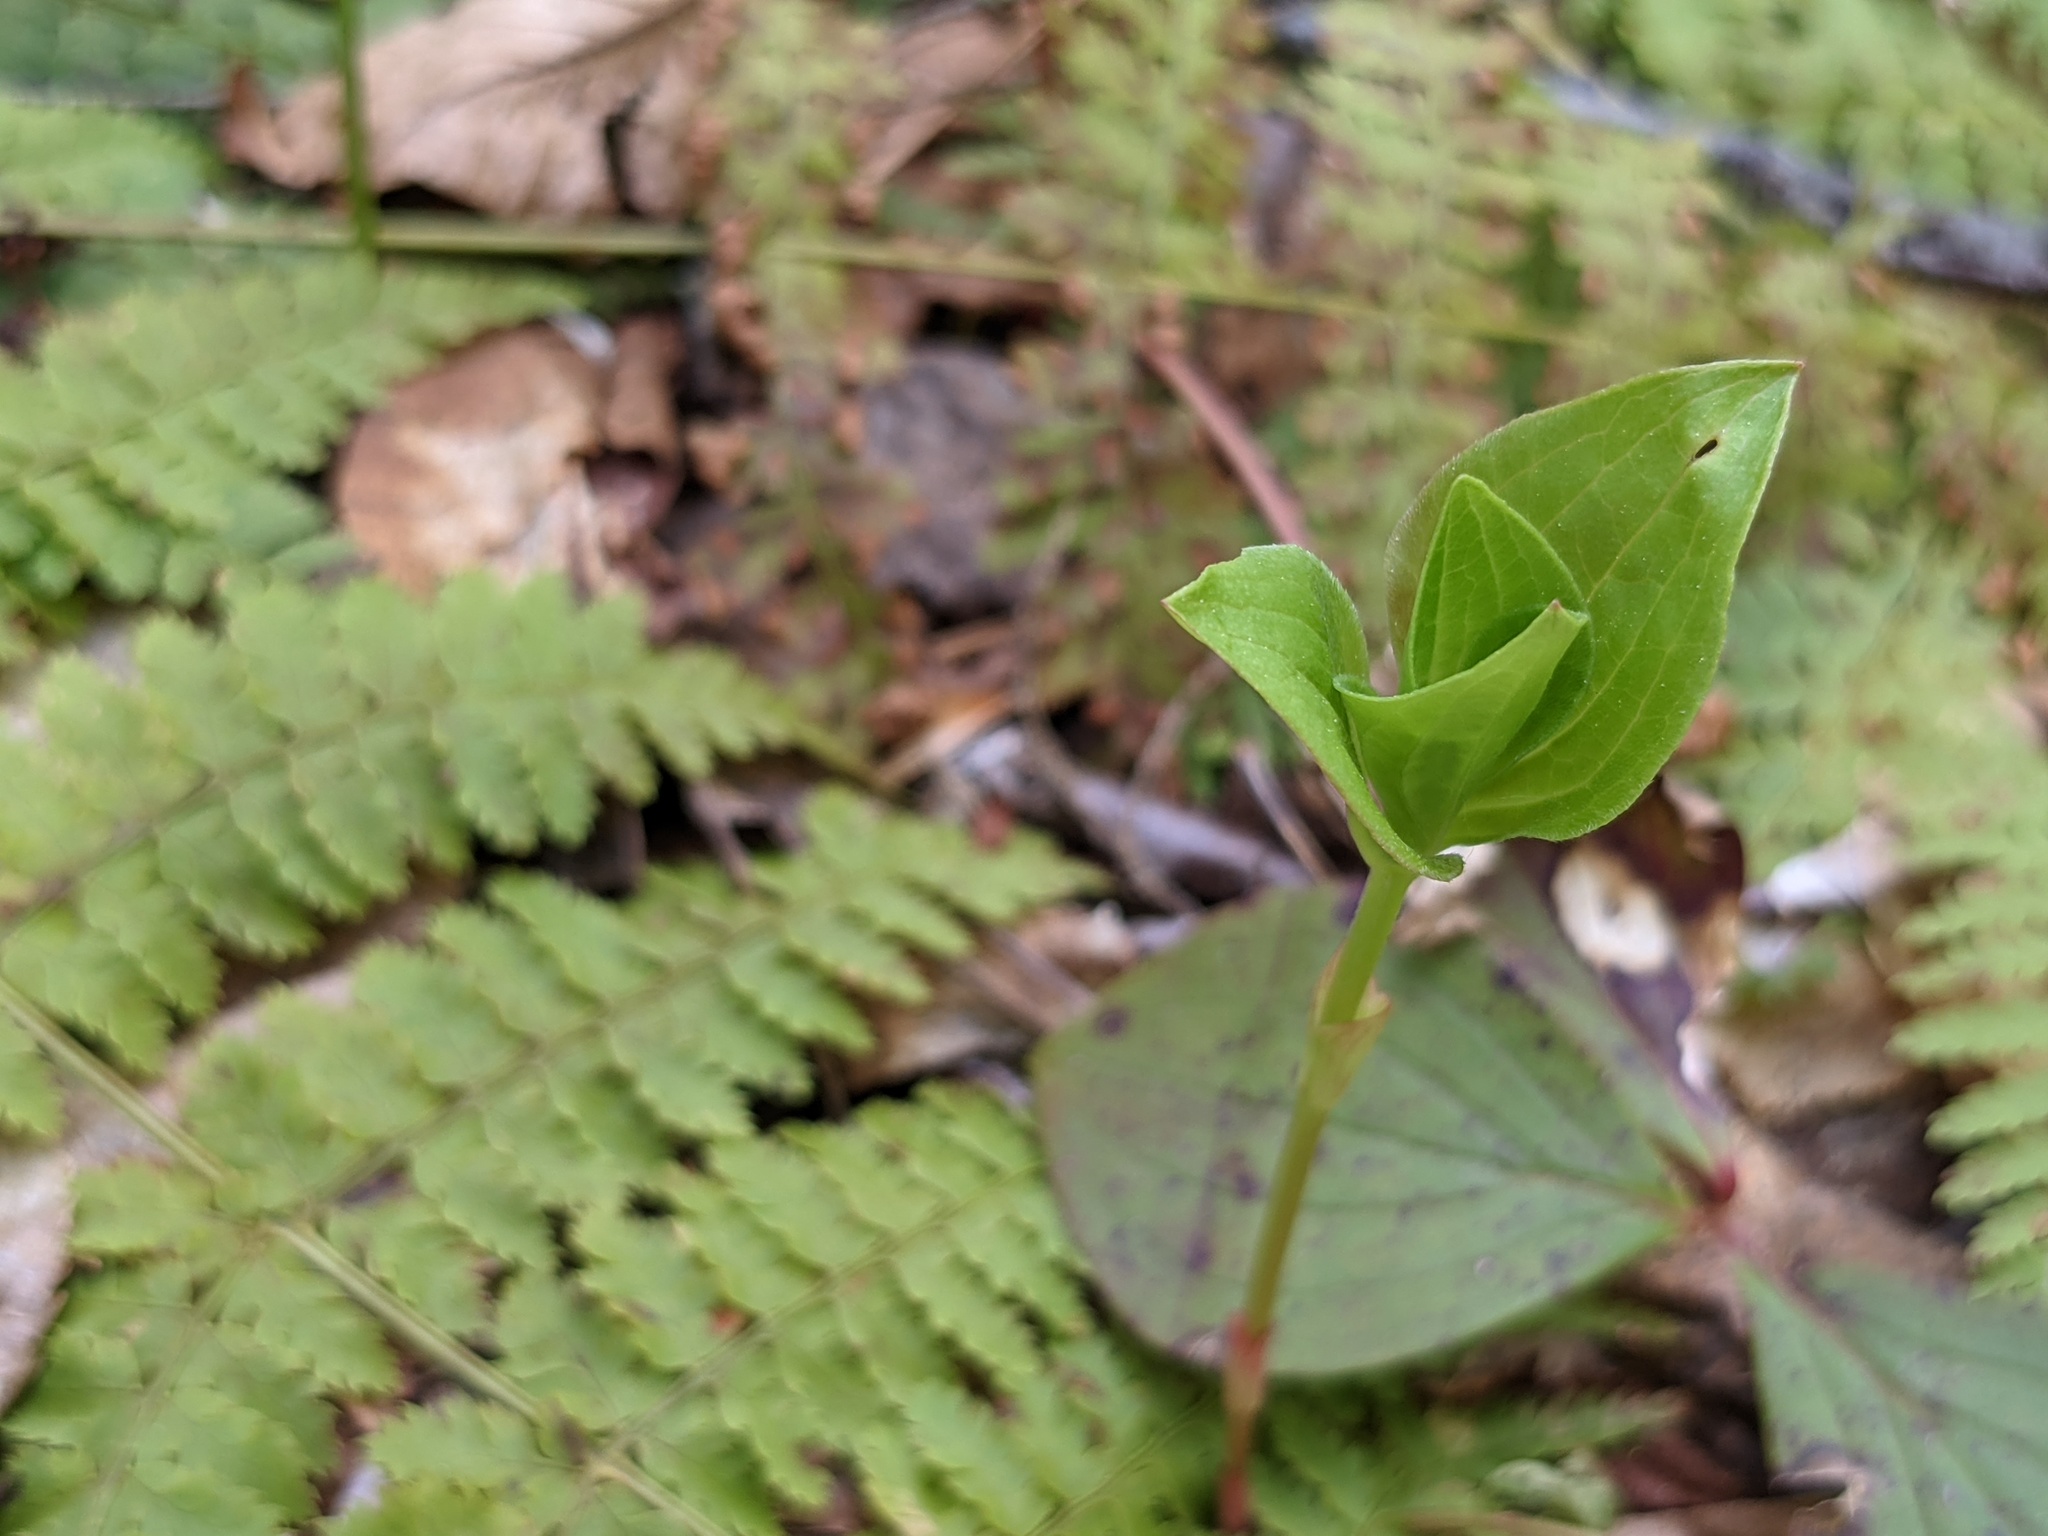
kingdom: Plantae
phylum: Tracheophyta
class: Magnoliopsida
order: Cornales
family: Cornaceae
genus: Cornus
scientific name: Cornus canadensis
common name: Creeping dogwood
